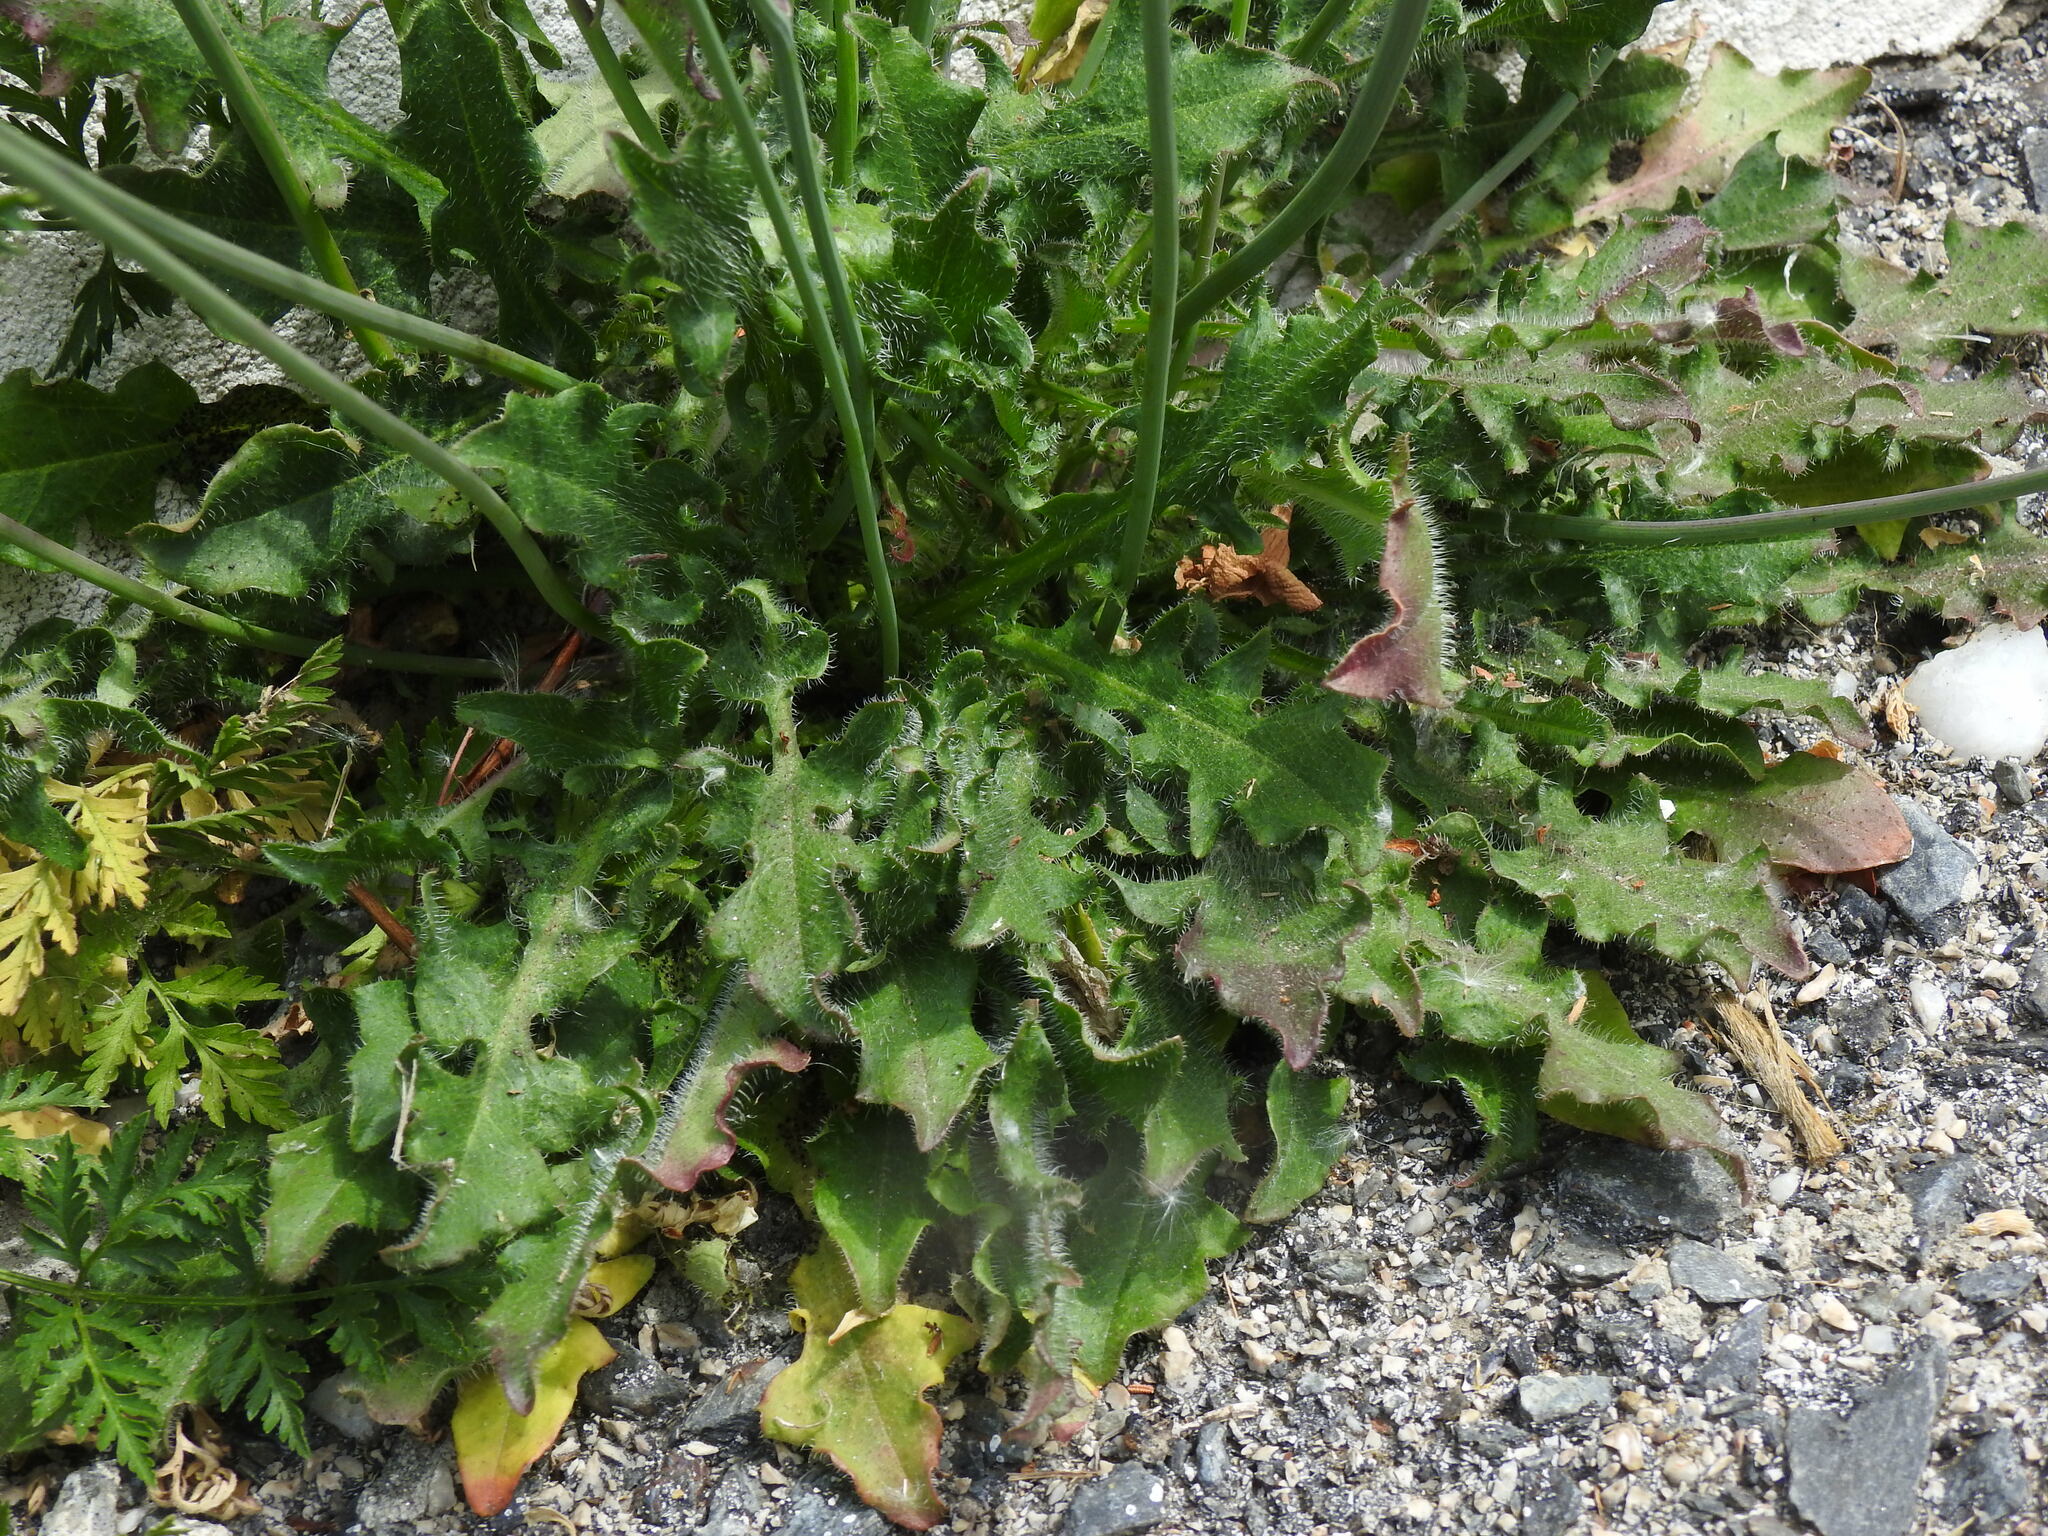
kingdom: Plantae
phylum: Tracheophyta
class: Magnoliopsida
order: Asterales
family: Asteraceae
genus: Hypochaeris
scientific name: Hypochaeris radicata
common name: Flatweed
